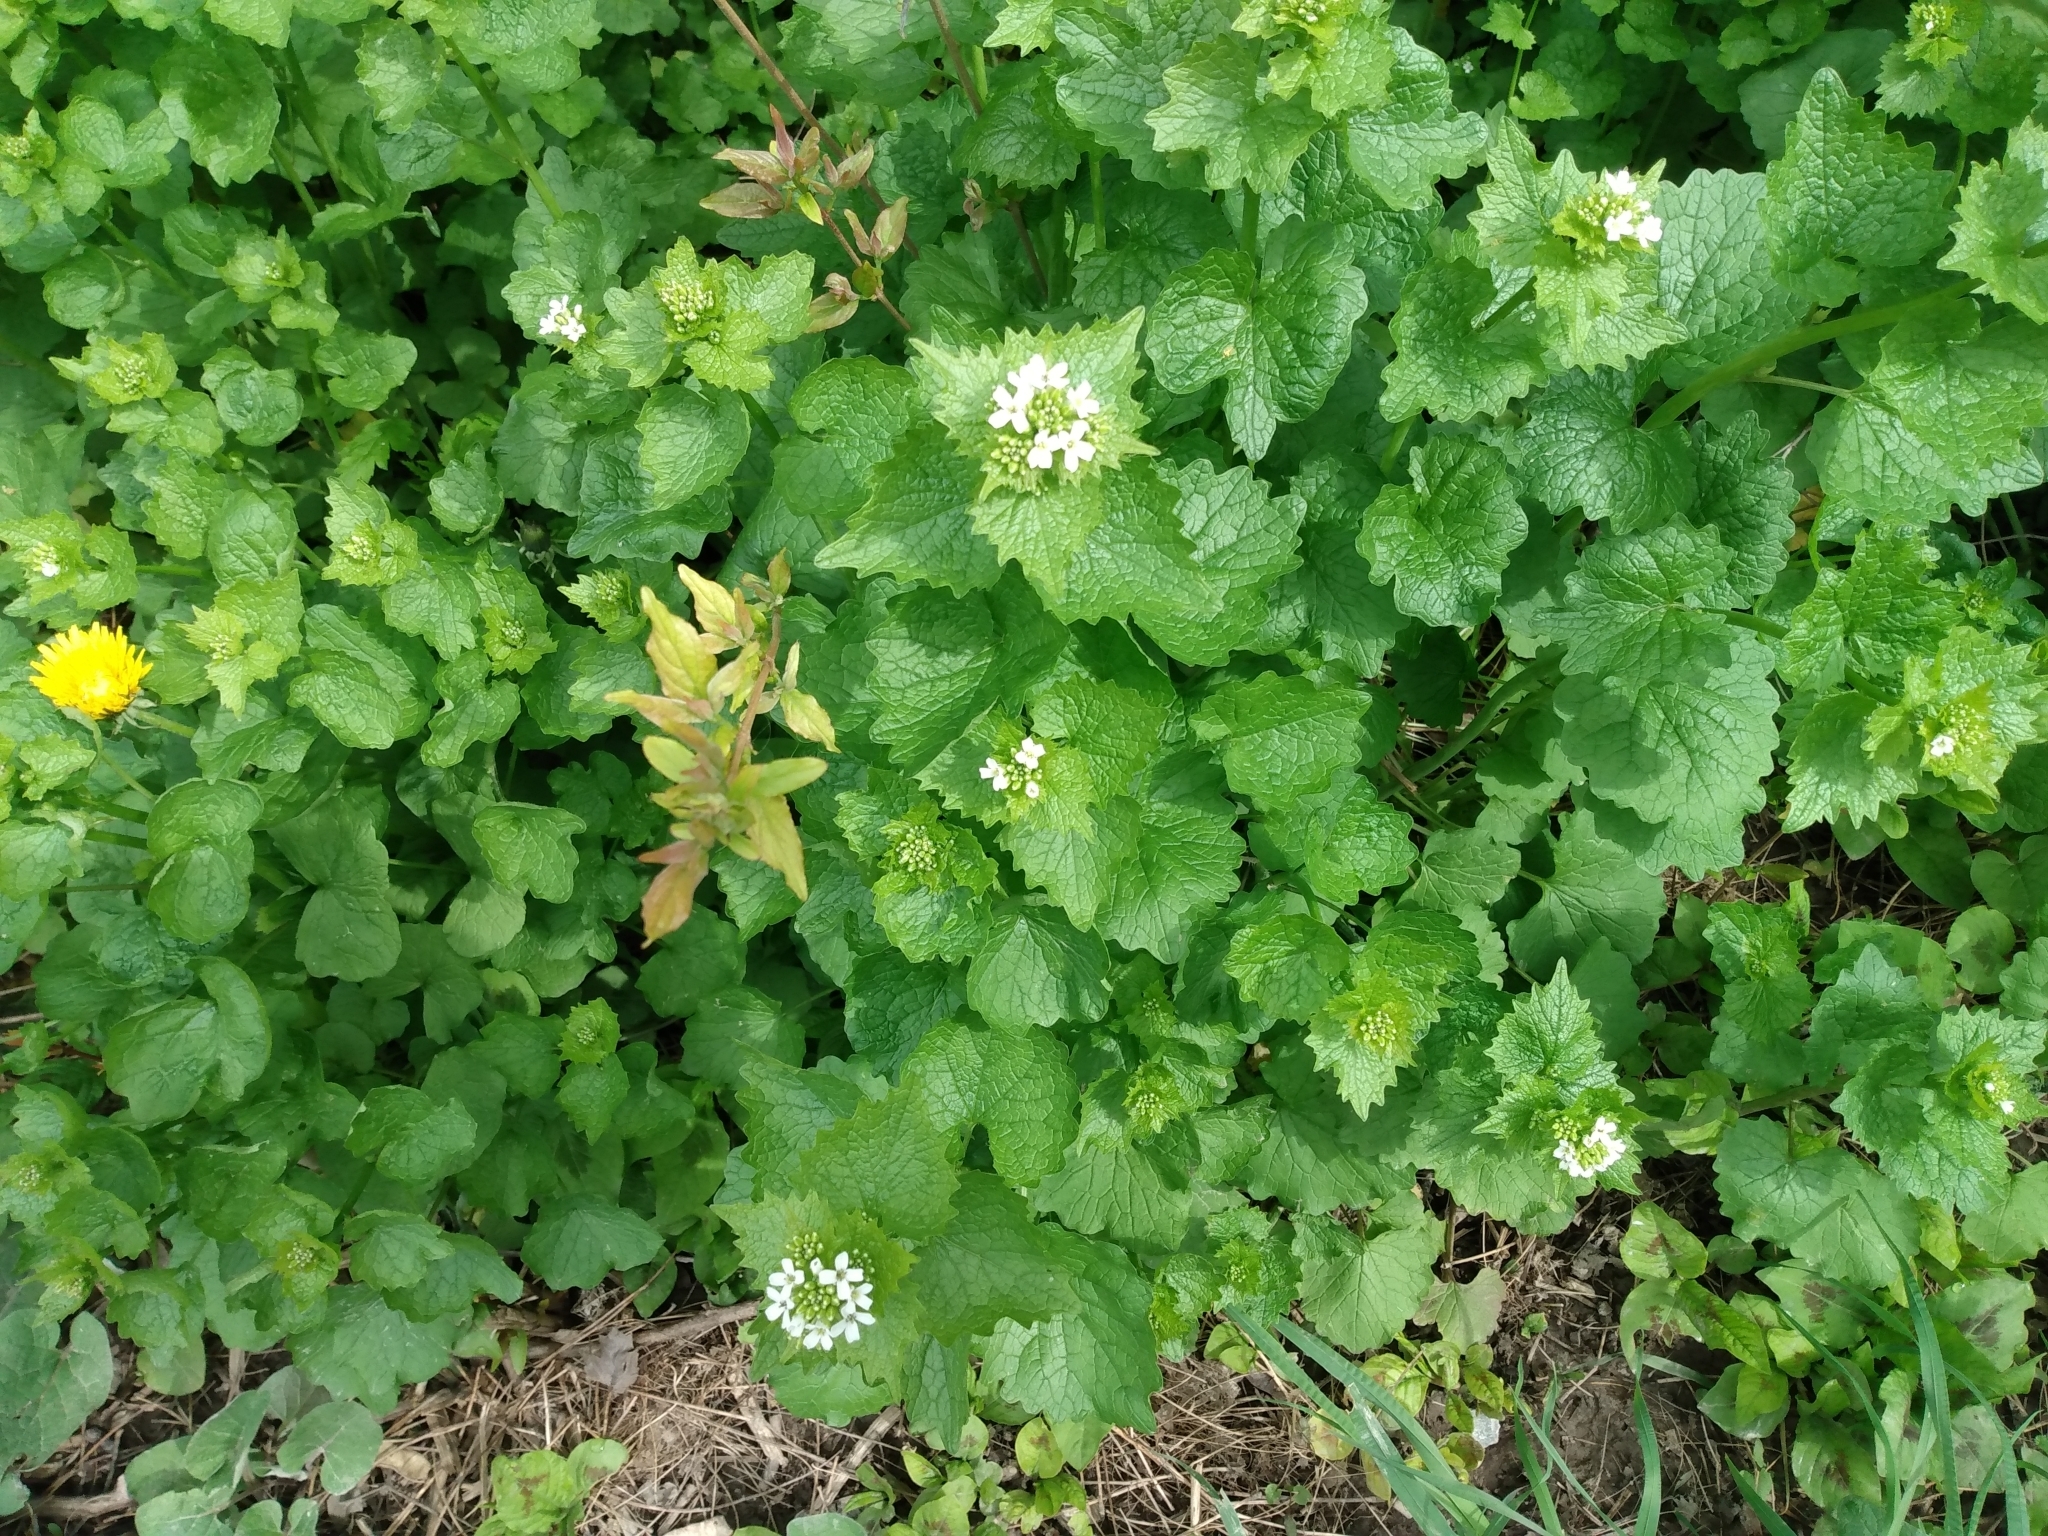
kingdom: Plantae
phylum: Tracheophyta
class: Magnoliopsida
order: Brassicales
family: Brassicaceae
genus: Alliaria
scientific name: Alliaria petiolata
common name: Garlic mustard
